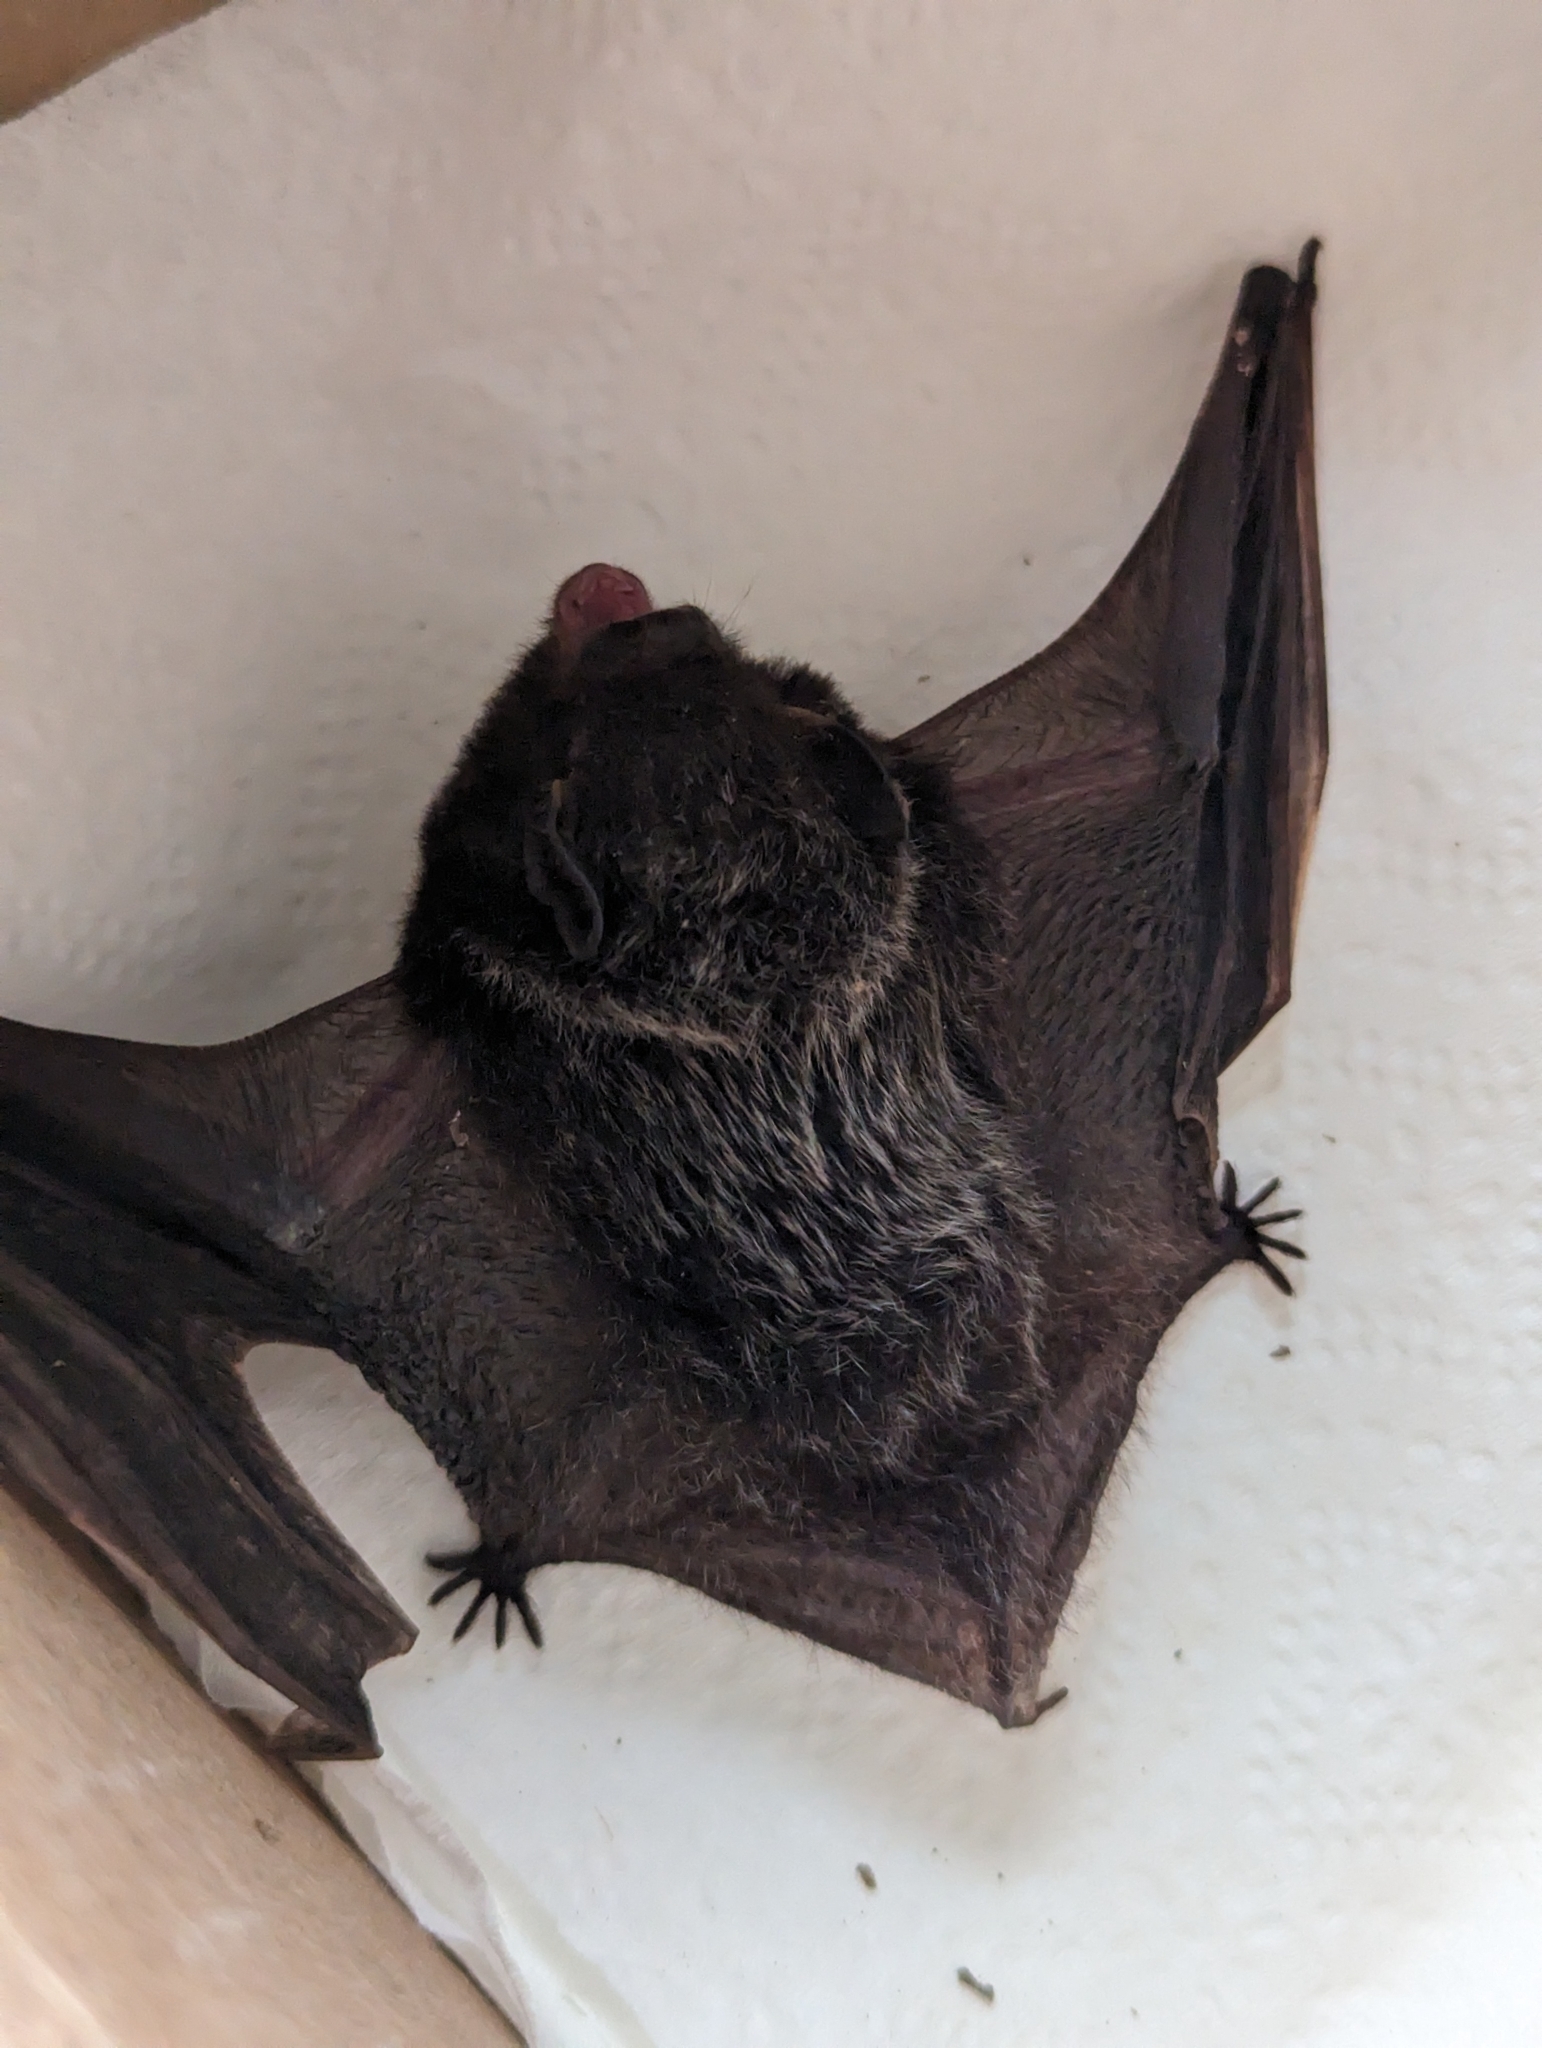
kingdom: Animalia
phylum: Chordata
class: Mammalia
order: Chiroptera
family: Vespertilionidae
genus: Lasionycteris
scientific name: Lasionycteris noctivagans
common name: Silver-haired bat
